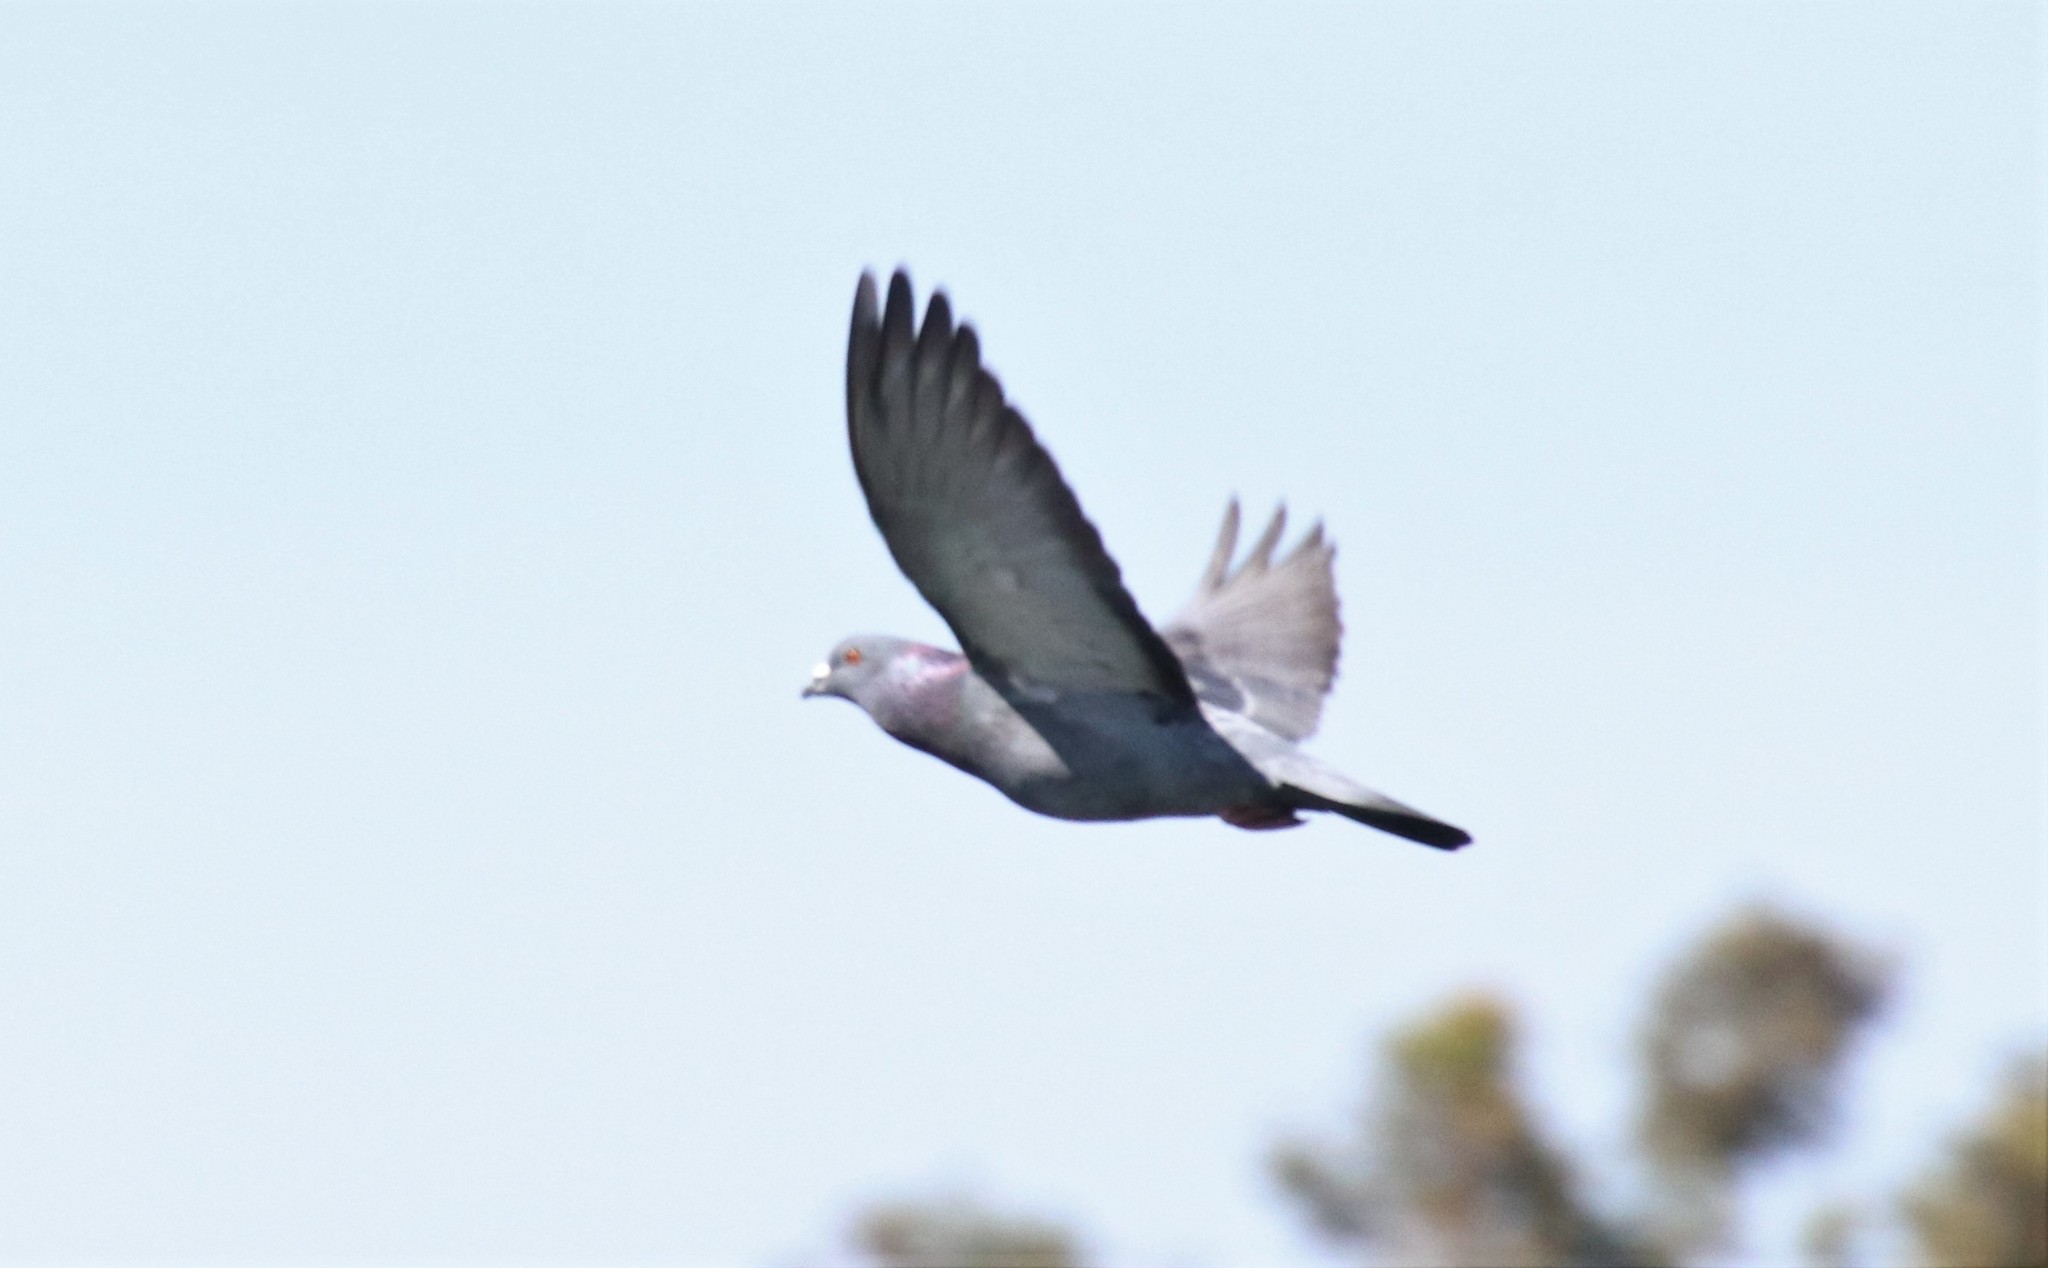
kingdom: Animalia
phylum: Chordata
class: Aves
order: Columbiformes
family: Columbidae
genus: Columba
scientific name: Columba livia
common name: Rock pigeon
